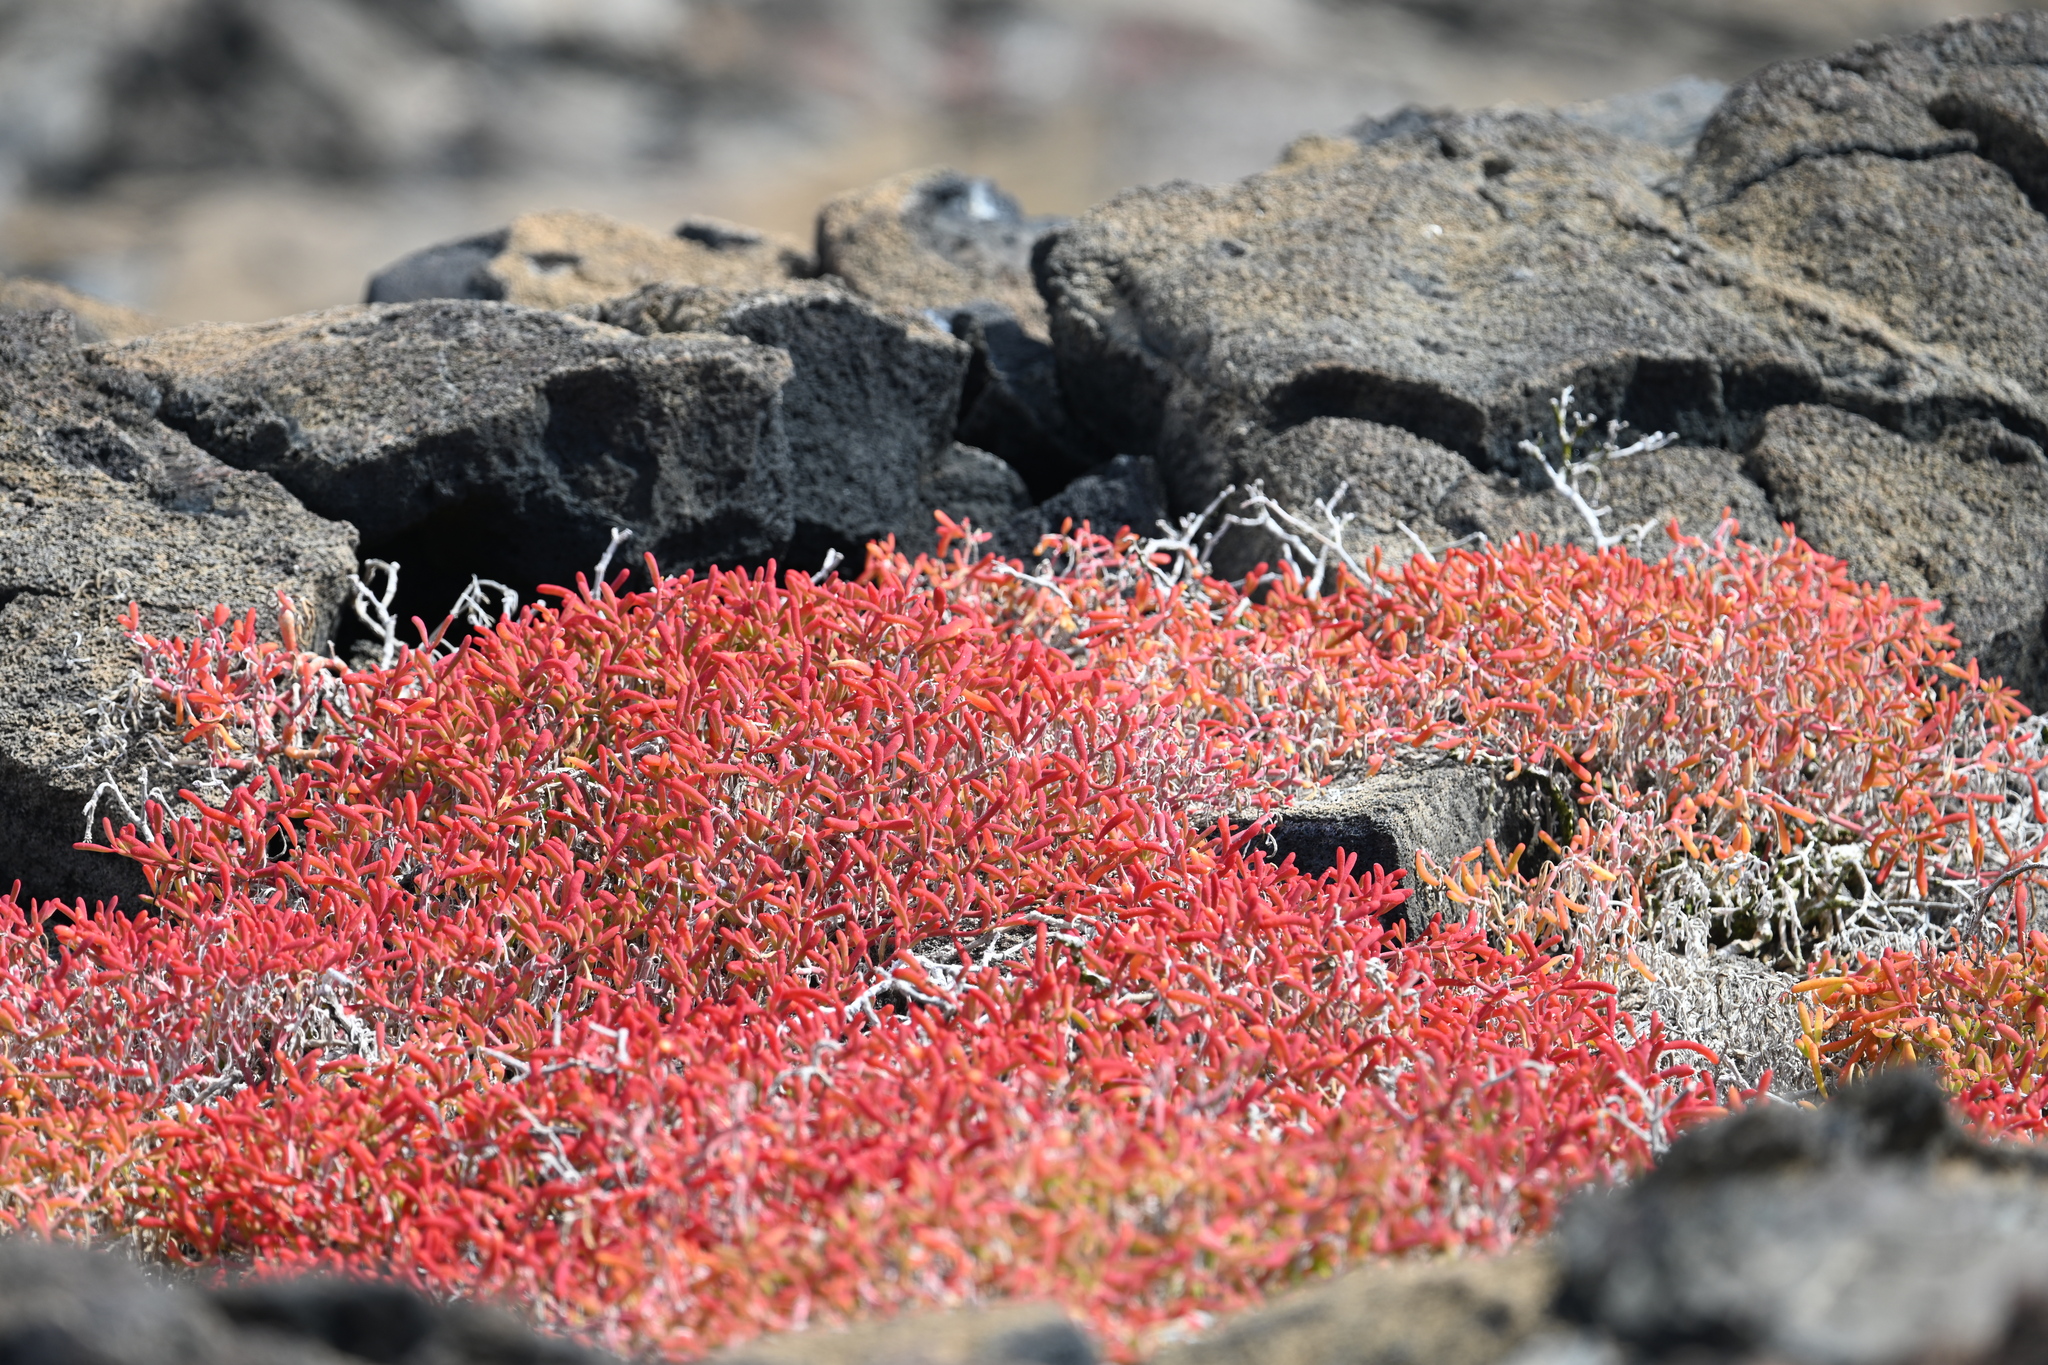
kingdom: Plantae
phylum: Tracheophyta
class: Magnoliopsida
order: Caryophyllales
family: Aizoaceae
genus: Sesuvium
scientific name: Sesuvium edmonstonei
